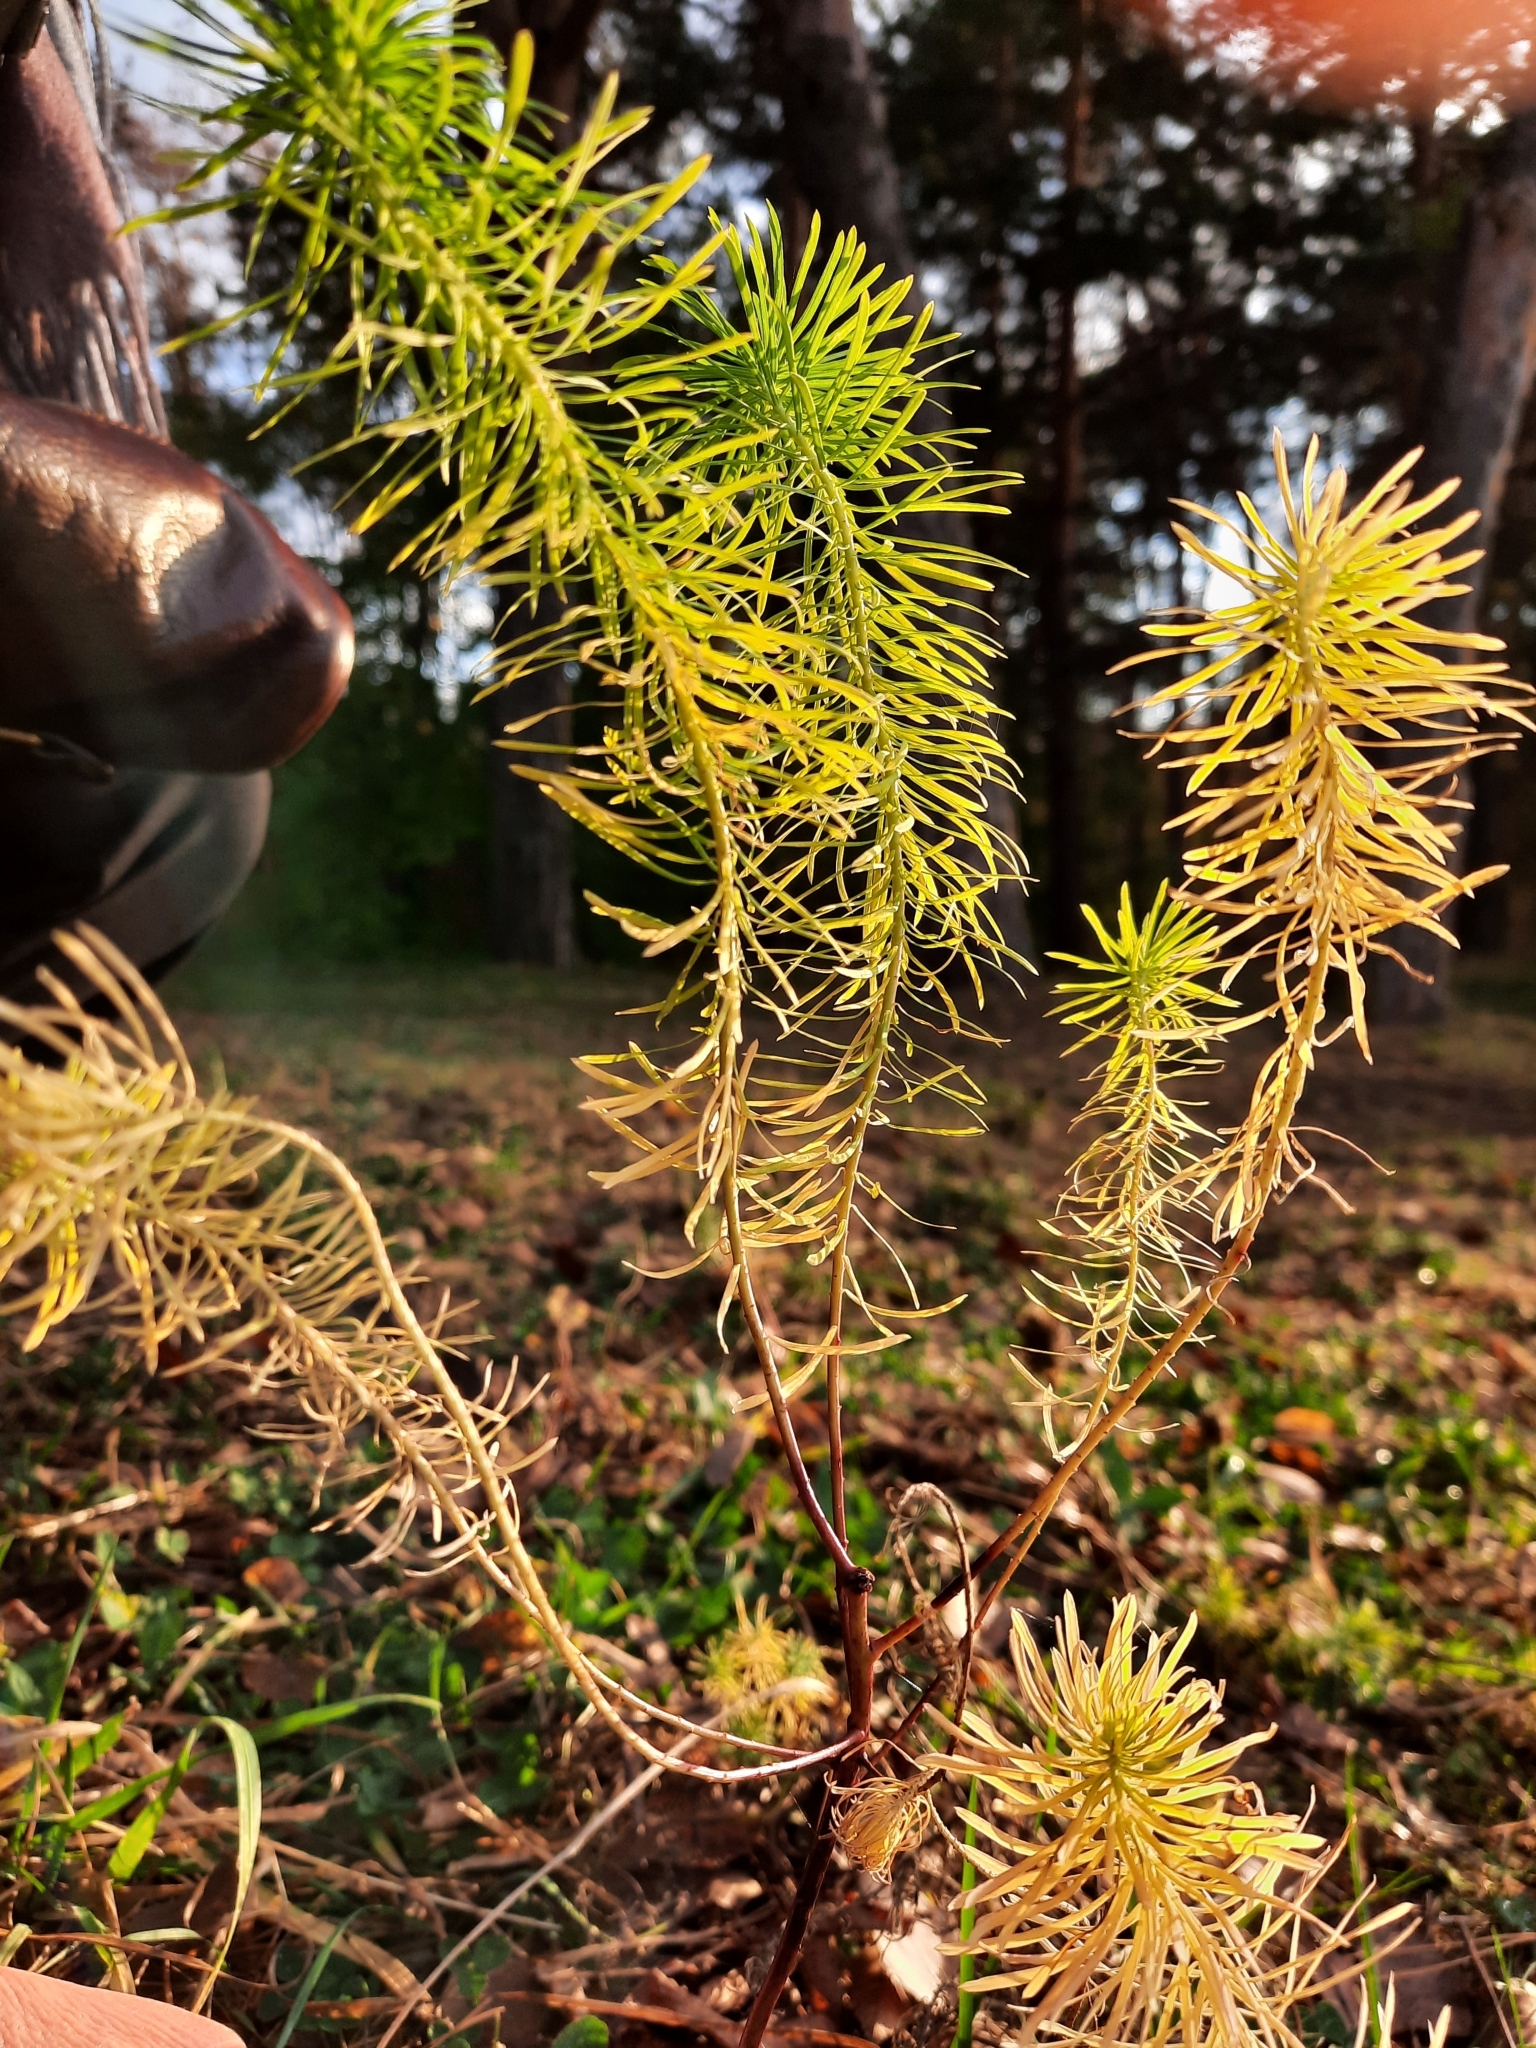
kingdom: Plantae
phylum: Tracheophyta
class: Magnoliopsida
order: Malpighiales
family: Euphorbiaceae
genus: Euphorbia
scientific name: Euphorbia cyparissias
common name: Cypress spurge
